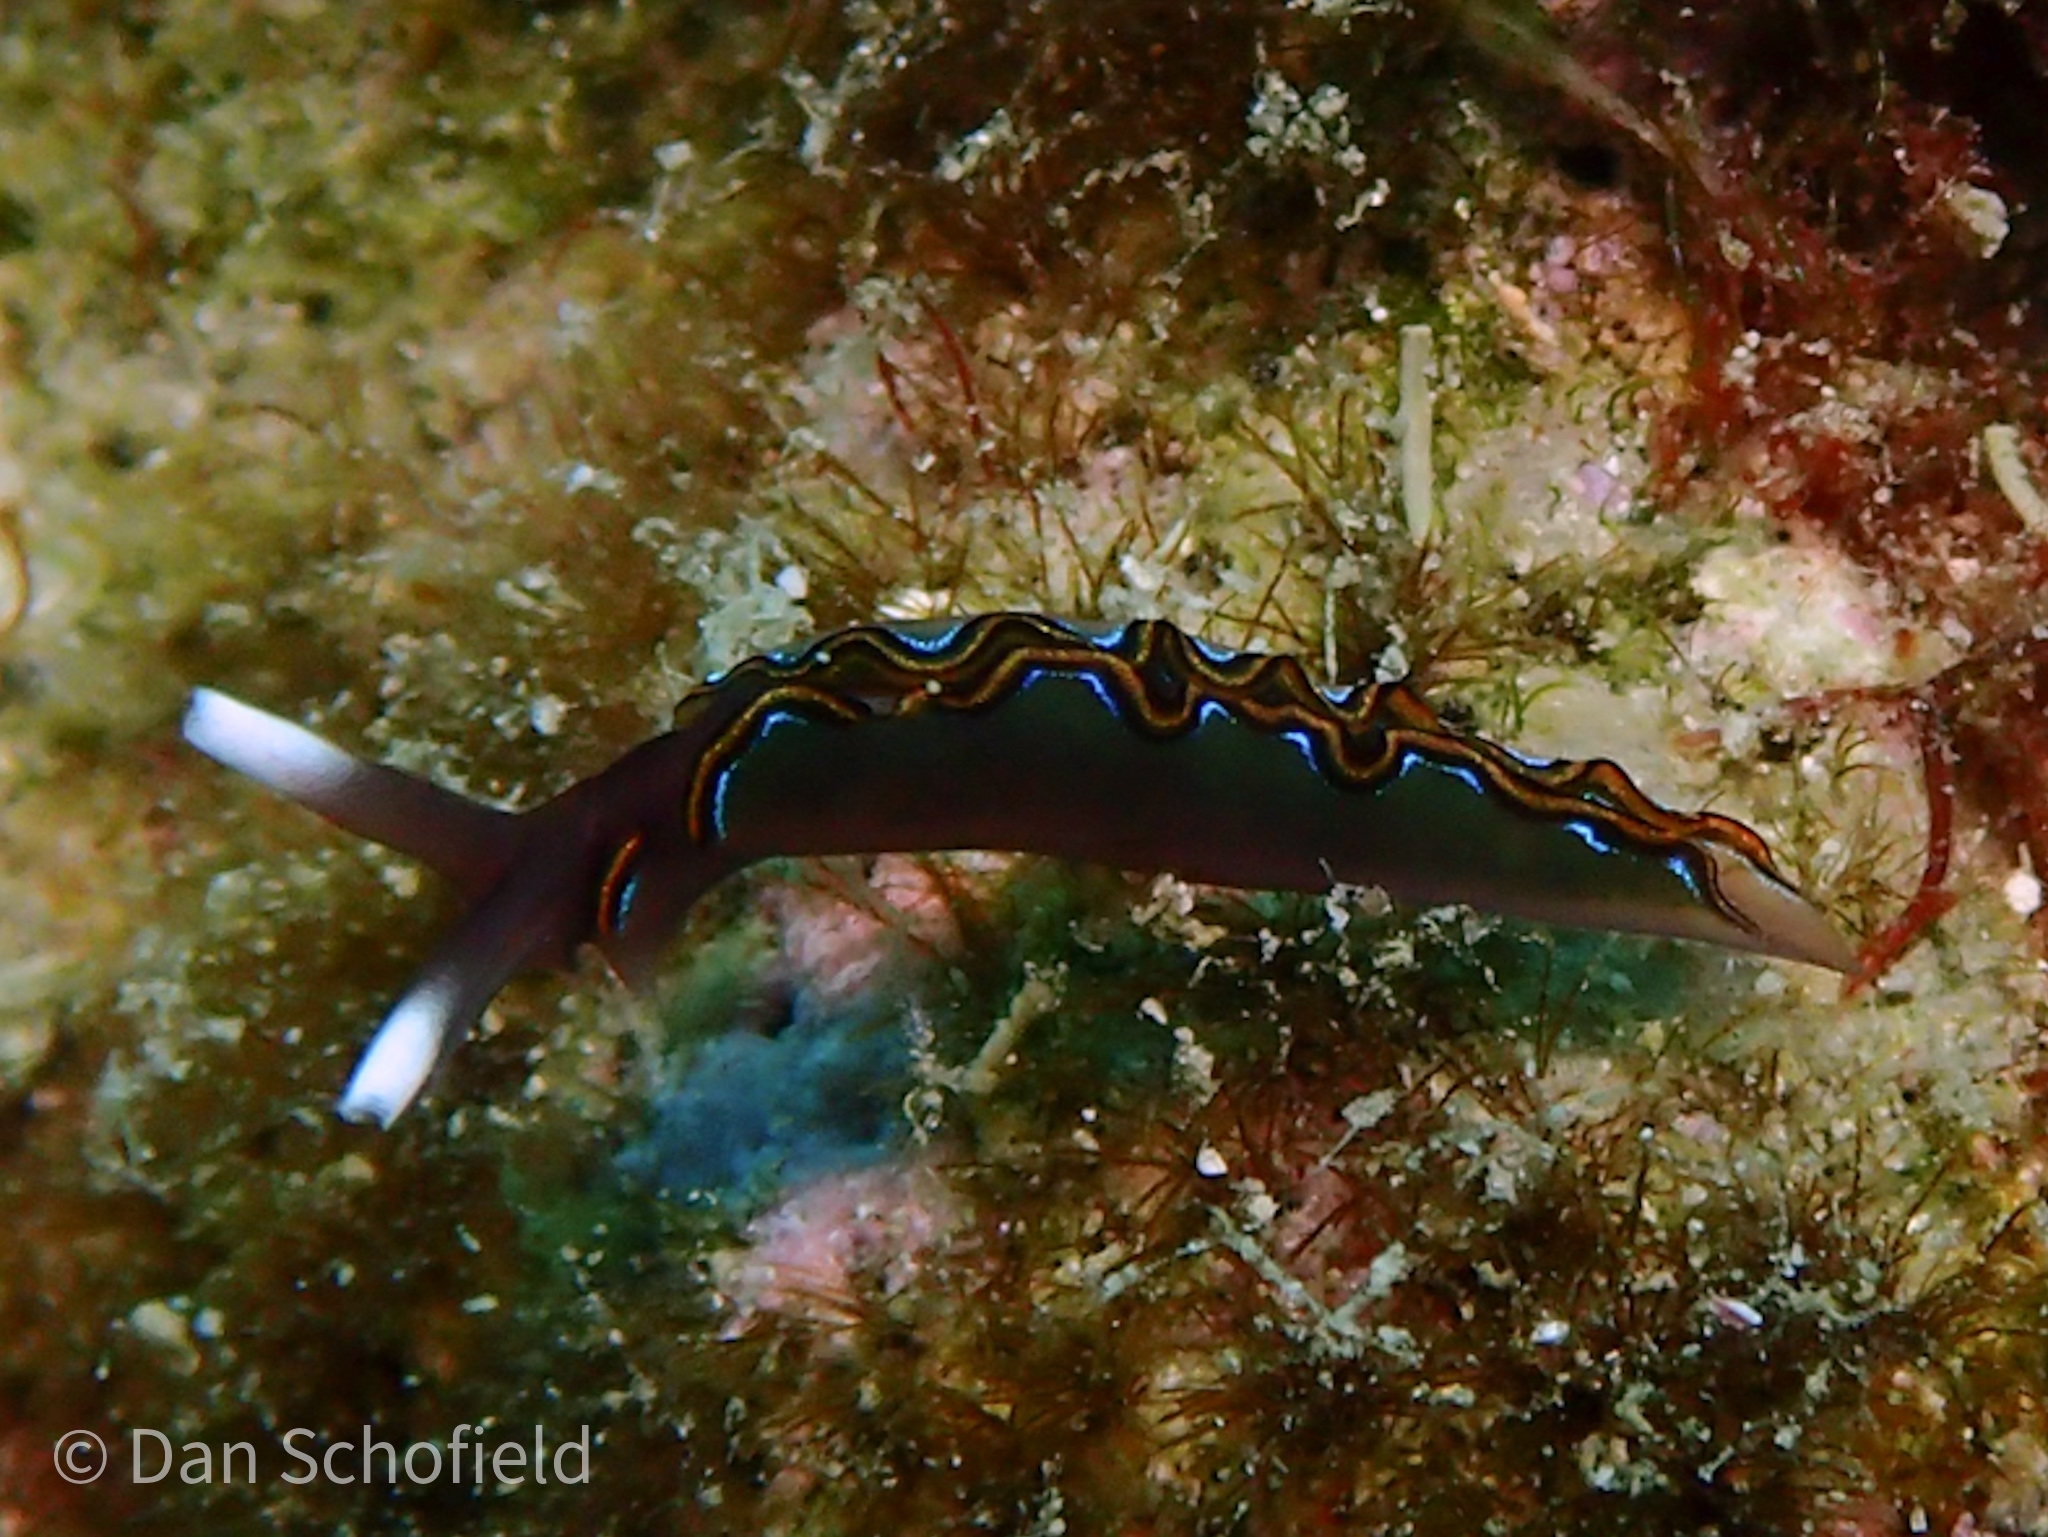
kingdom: Animalia
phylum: Mollusca
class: Gastropoda
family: Plakobranchidae
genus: Thuridilla
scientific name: Thuridilla livida
